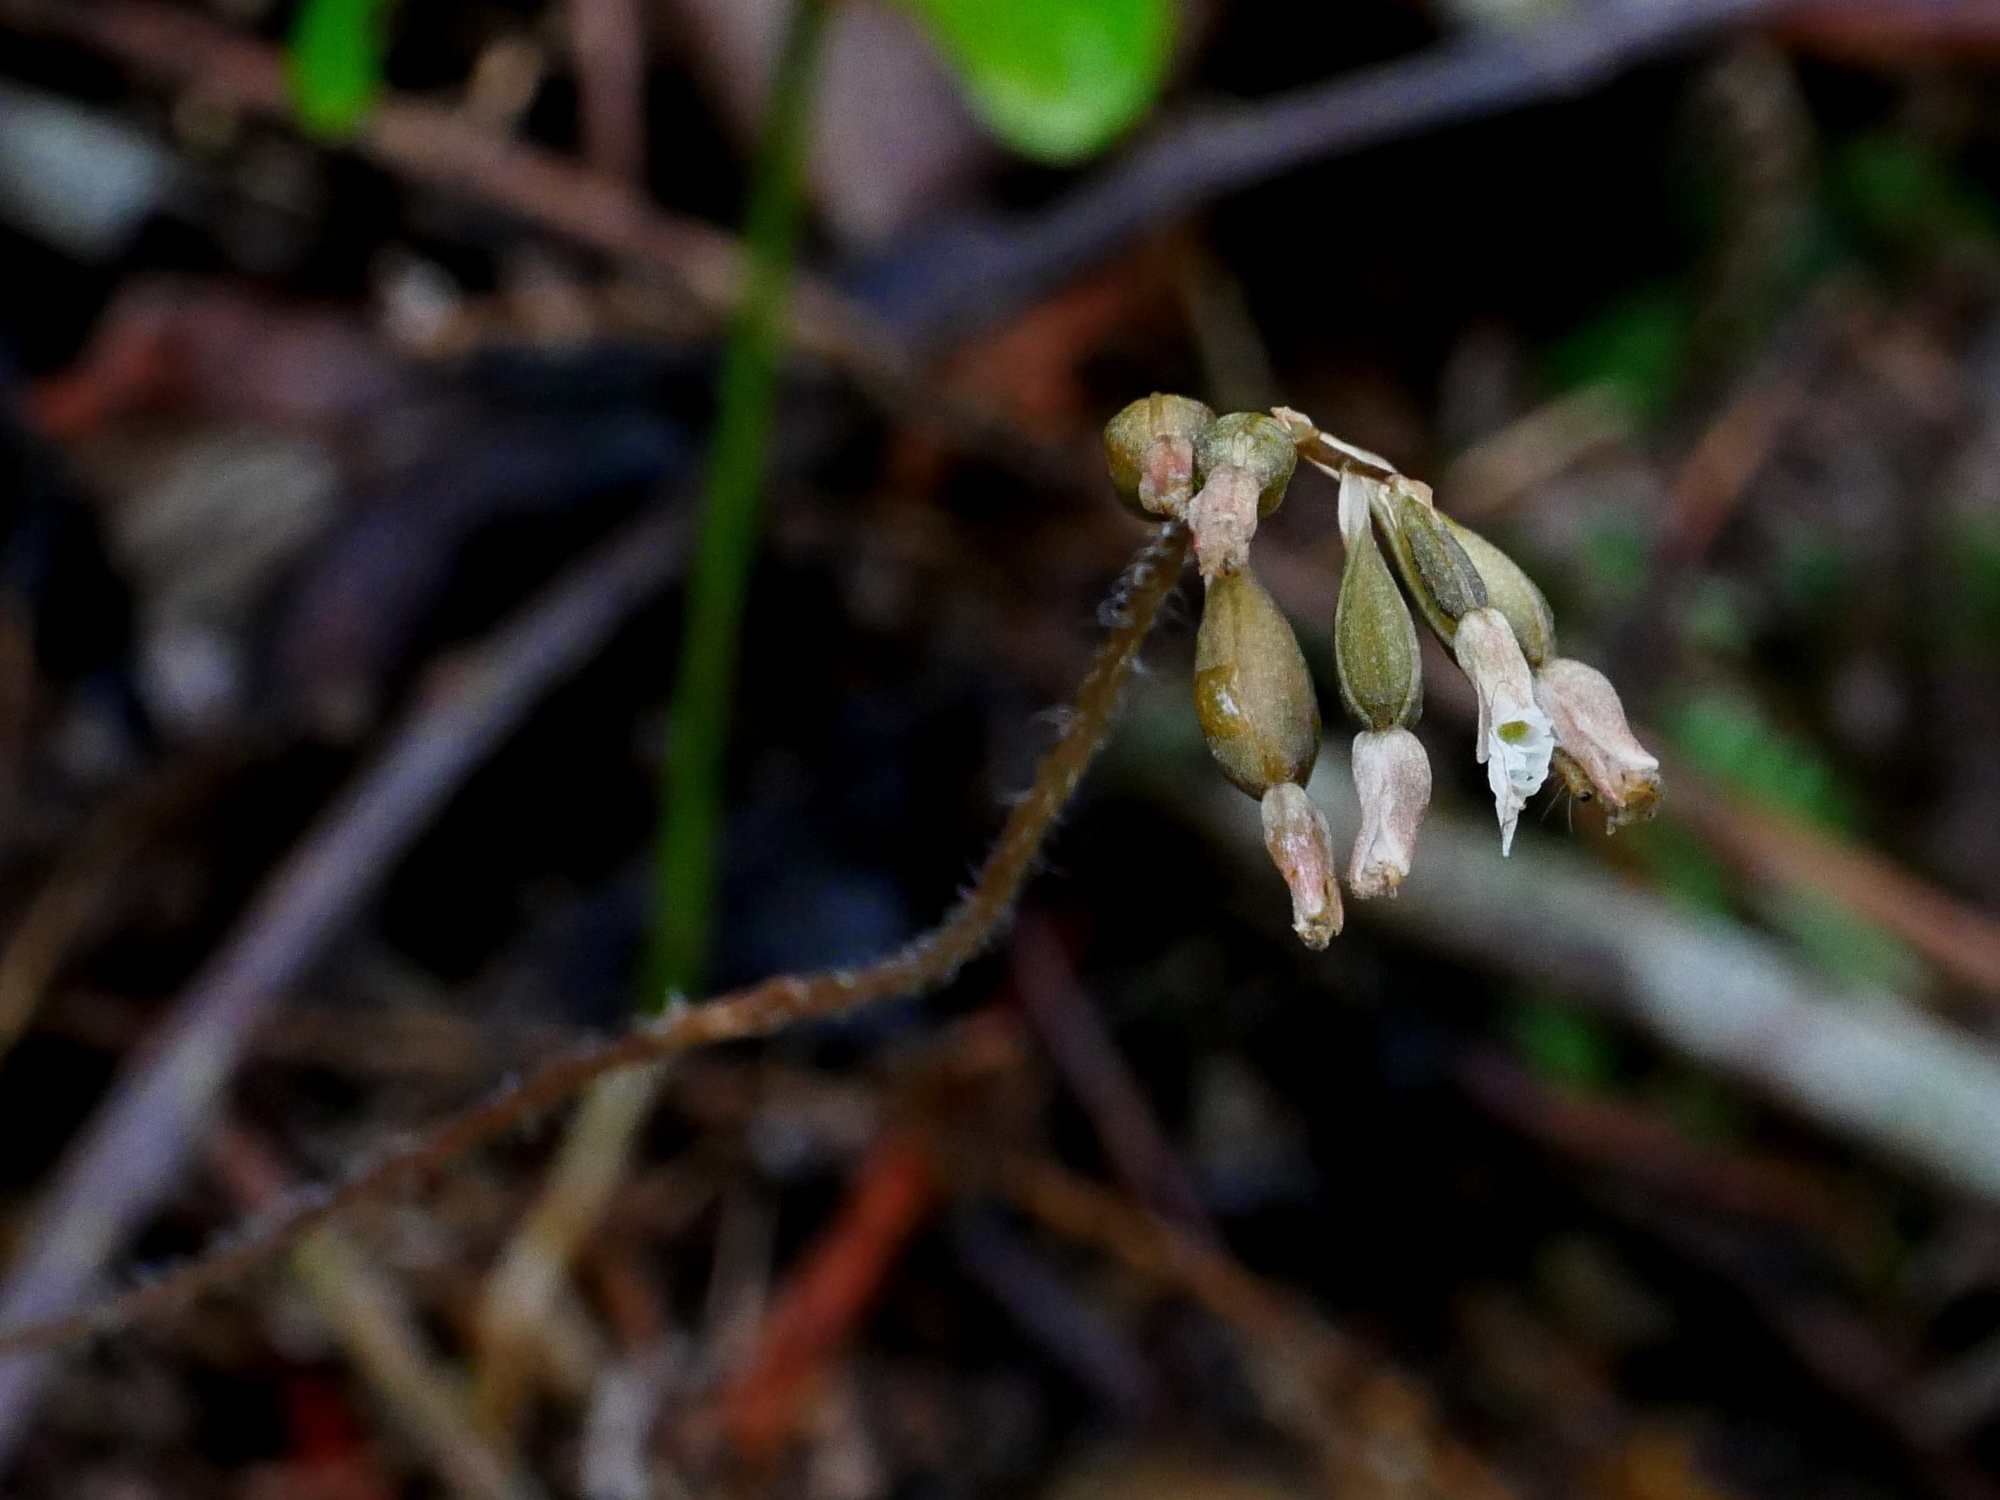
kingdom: Plantae
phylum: Tracheophyta
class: Liliopsida
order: Asparagales
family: Orchidaceae
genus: Cheirostylis
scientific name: Cheirostylis cochinchinensis
